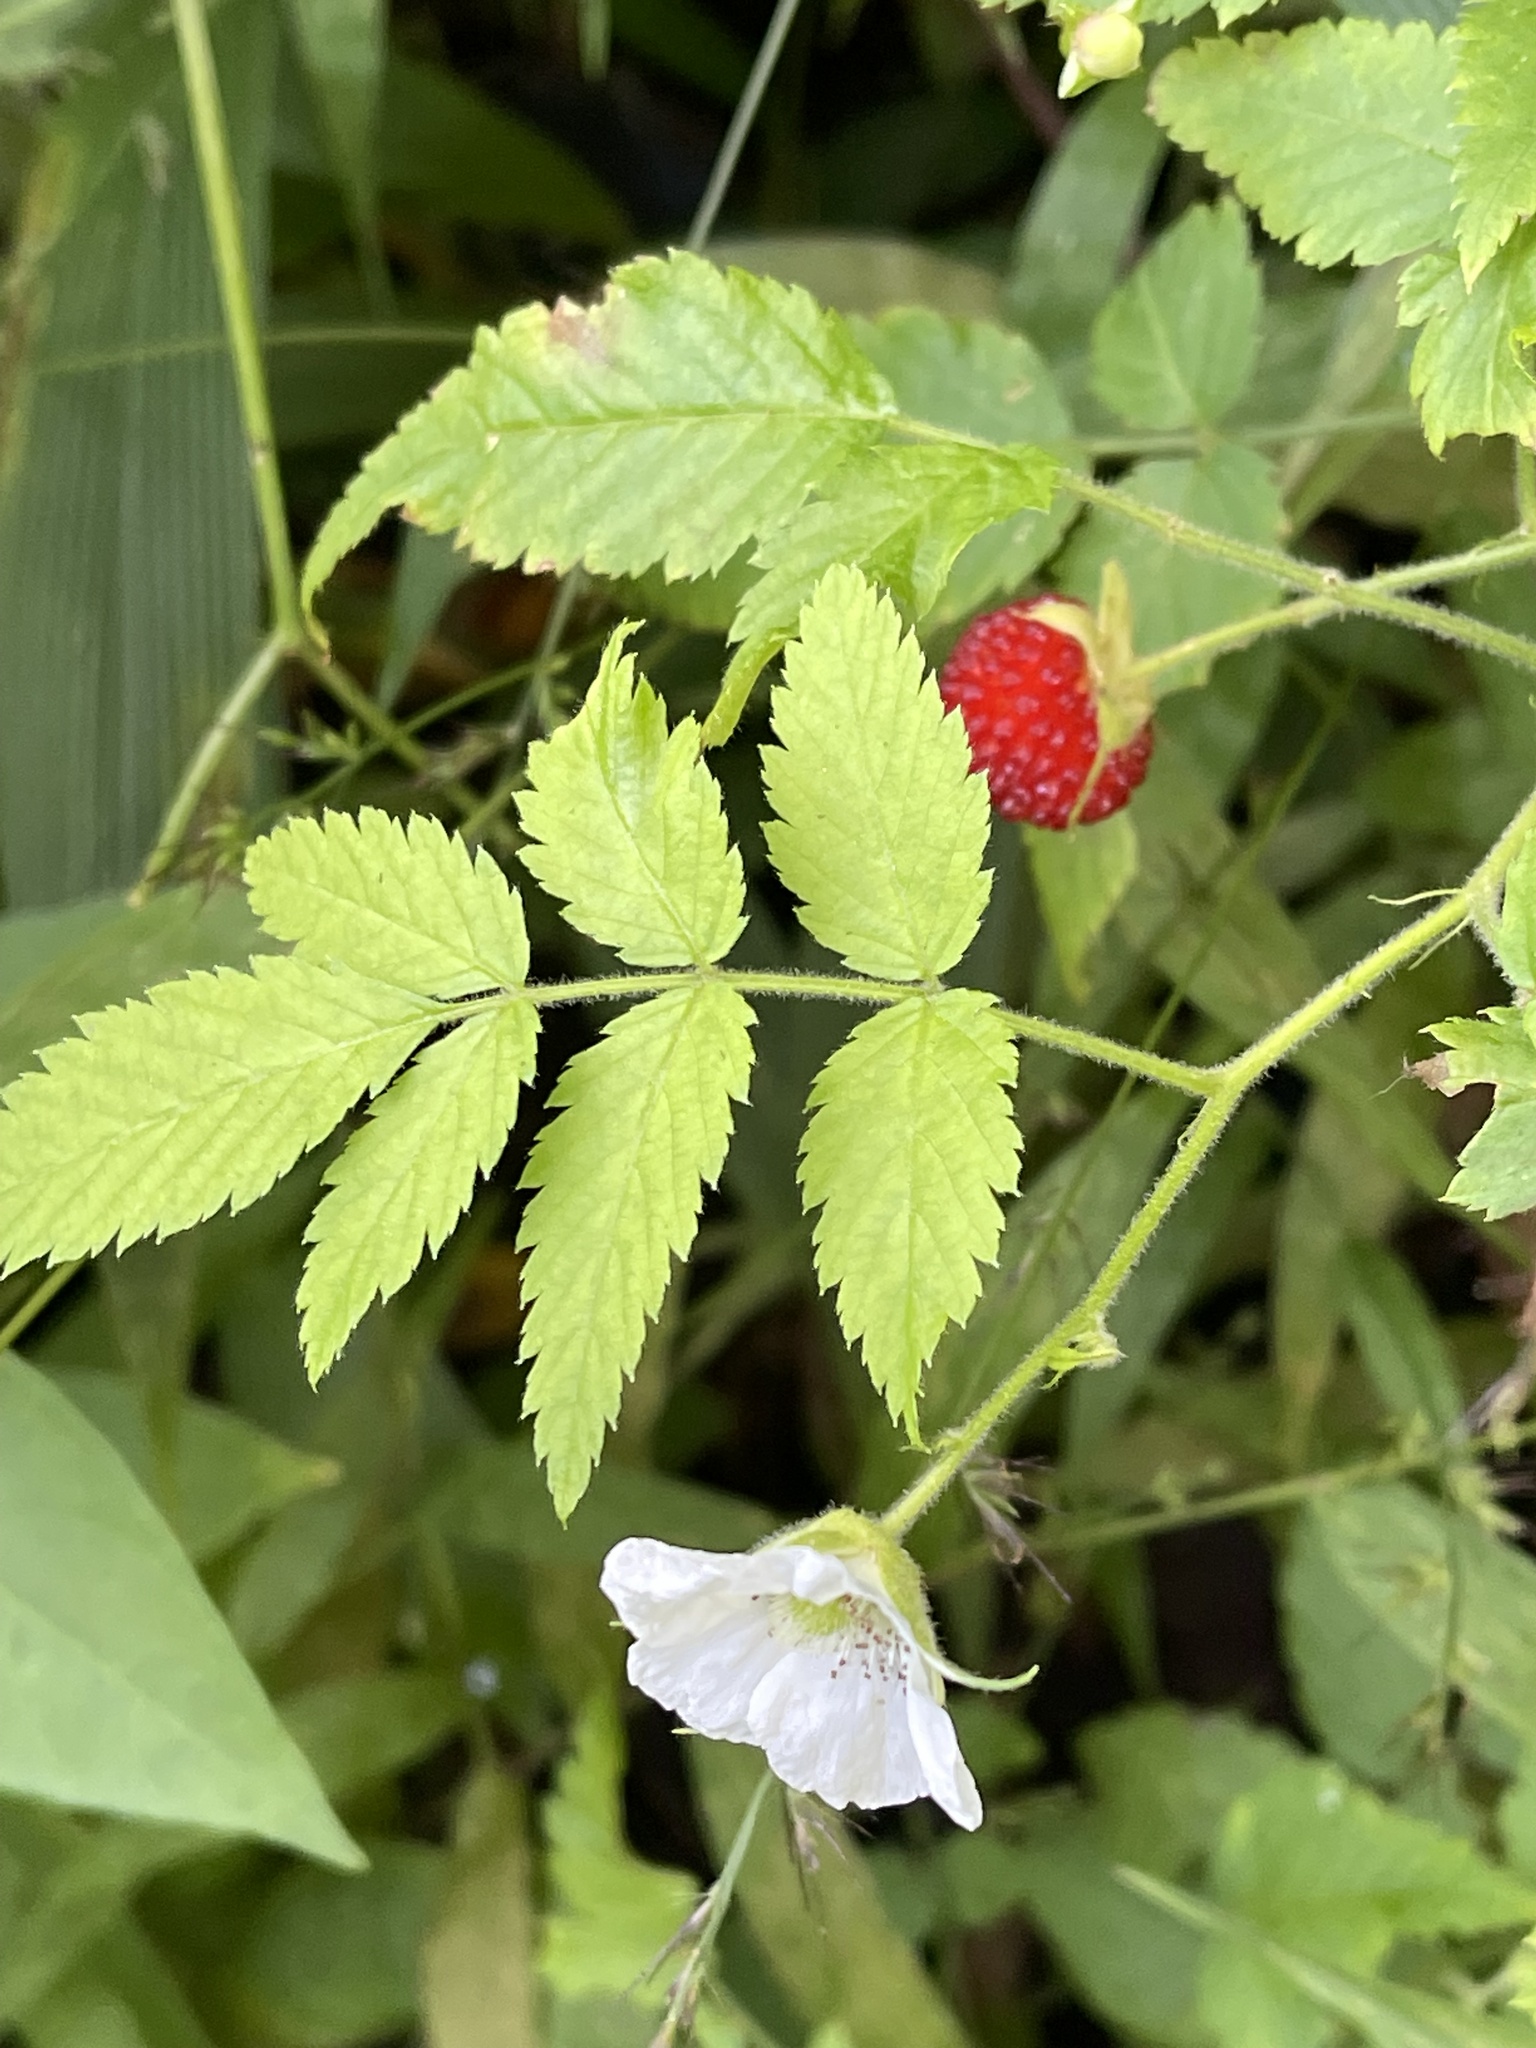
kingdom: Plantae
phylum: Tracheophyta
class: Magnoliopsida
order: Rosales
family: Rosaceae
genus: Rubus
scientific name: Rubus rosifolius
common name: Roseleaf raspberry
